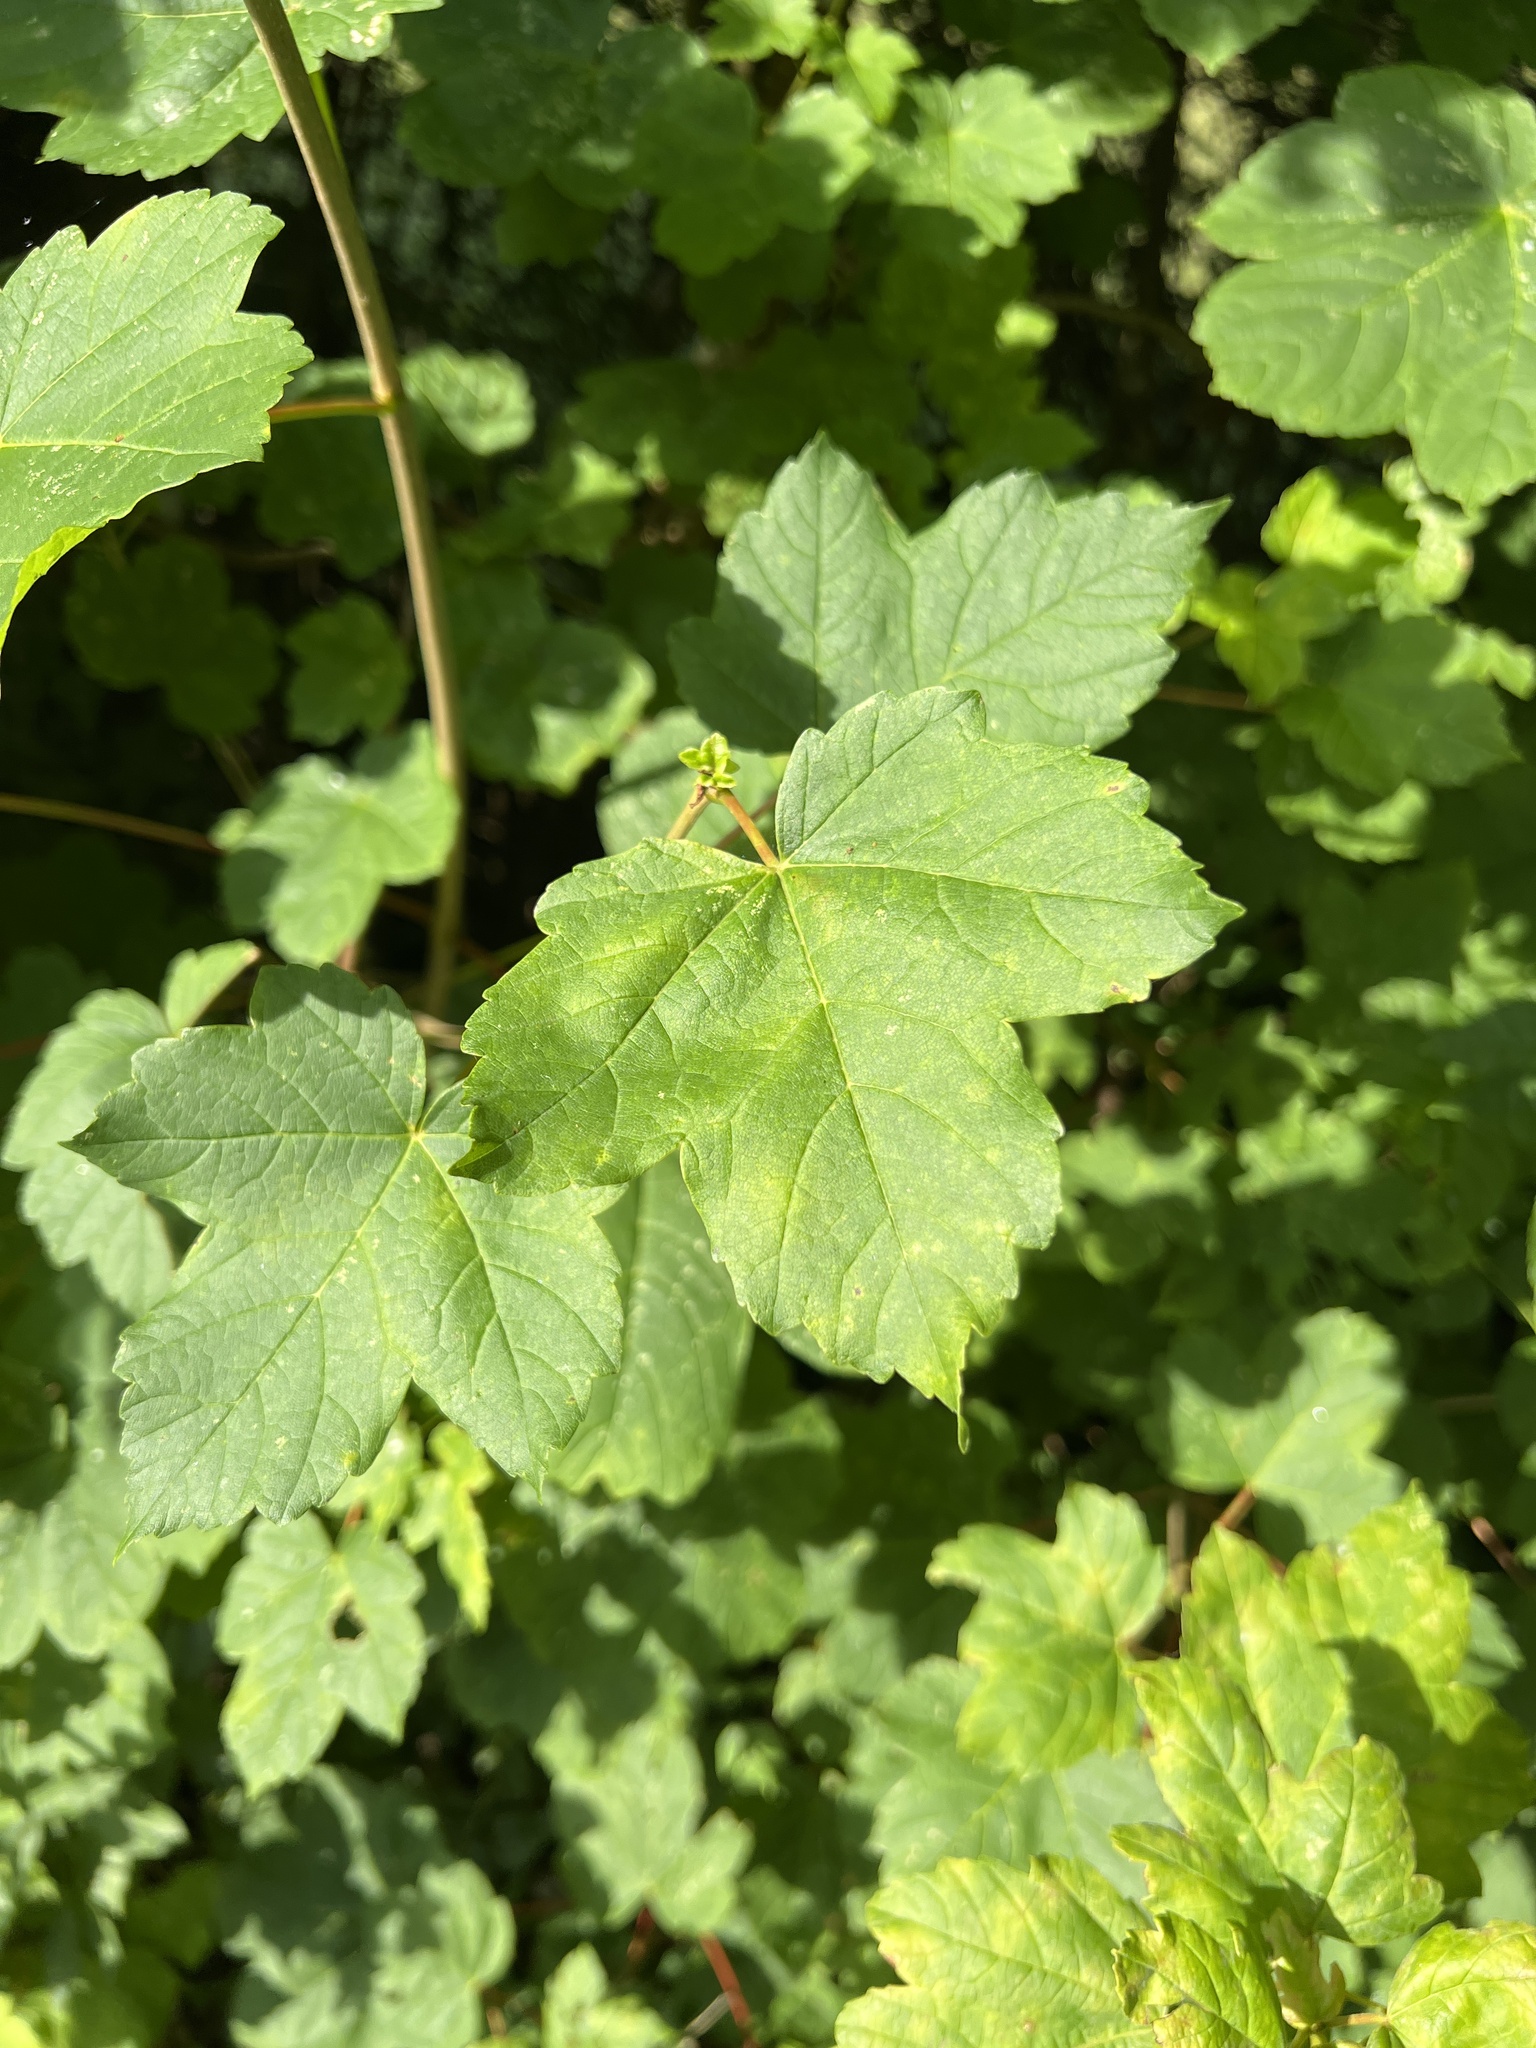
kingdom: Plantae
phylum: Tracheophyta
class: Magnoliopsida
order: Sapindales
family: Sapindaceae
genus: Acer
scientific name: Acer pseudoplatanus
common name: Sycamore
